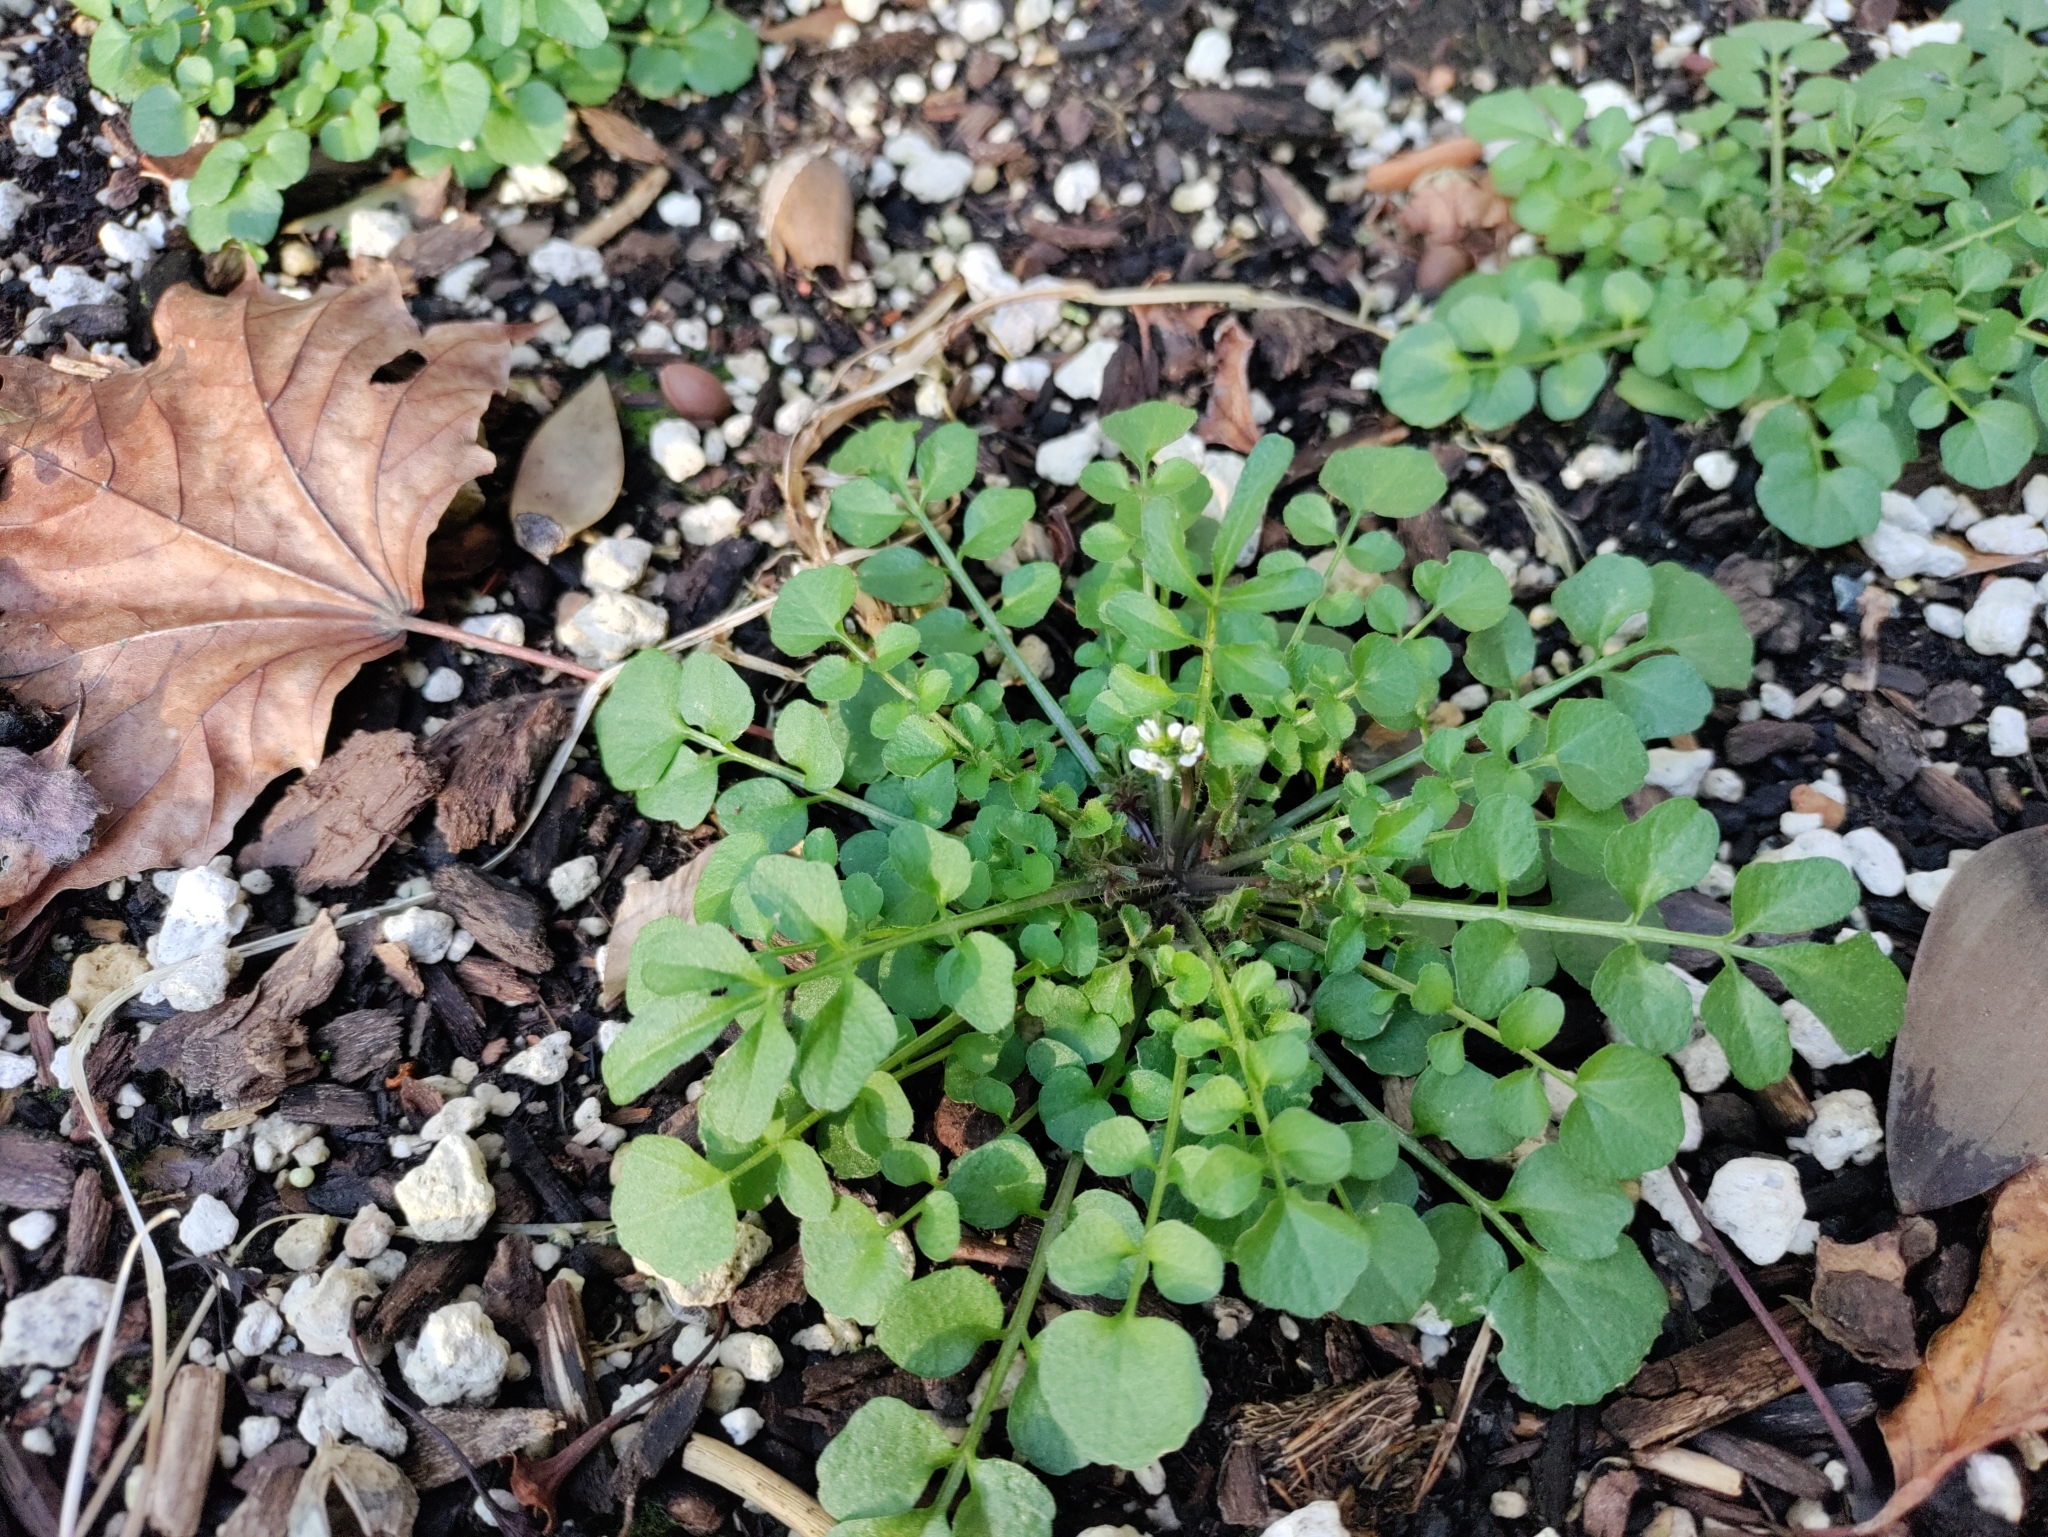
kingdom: Plantae
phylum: Tracheophyta
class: Magnoliopsida
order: Brassicales
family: Brassicaceae
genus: Cardamine
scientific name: Cardamine hirsuta
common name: Hairy bittercress
